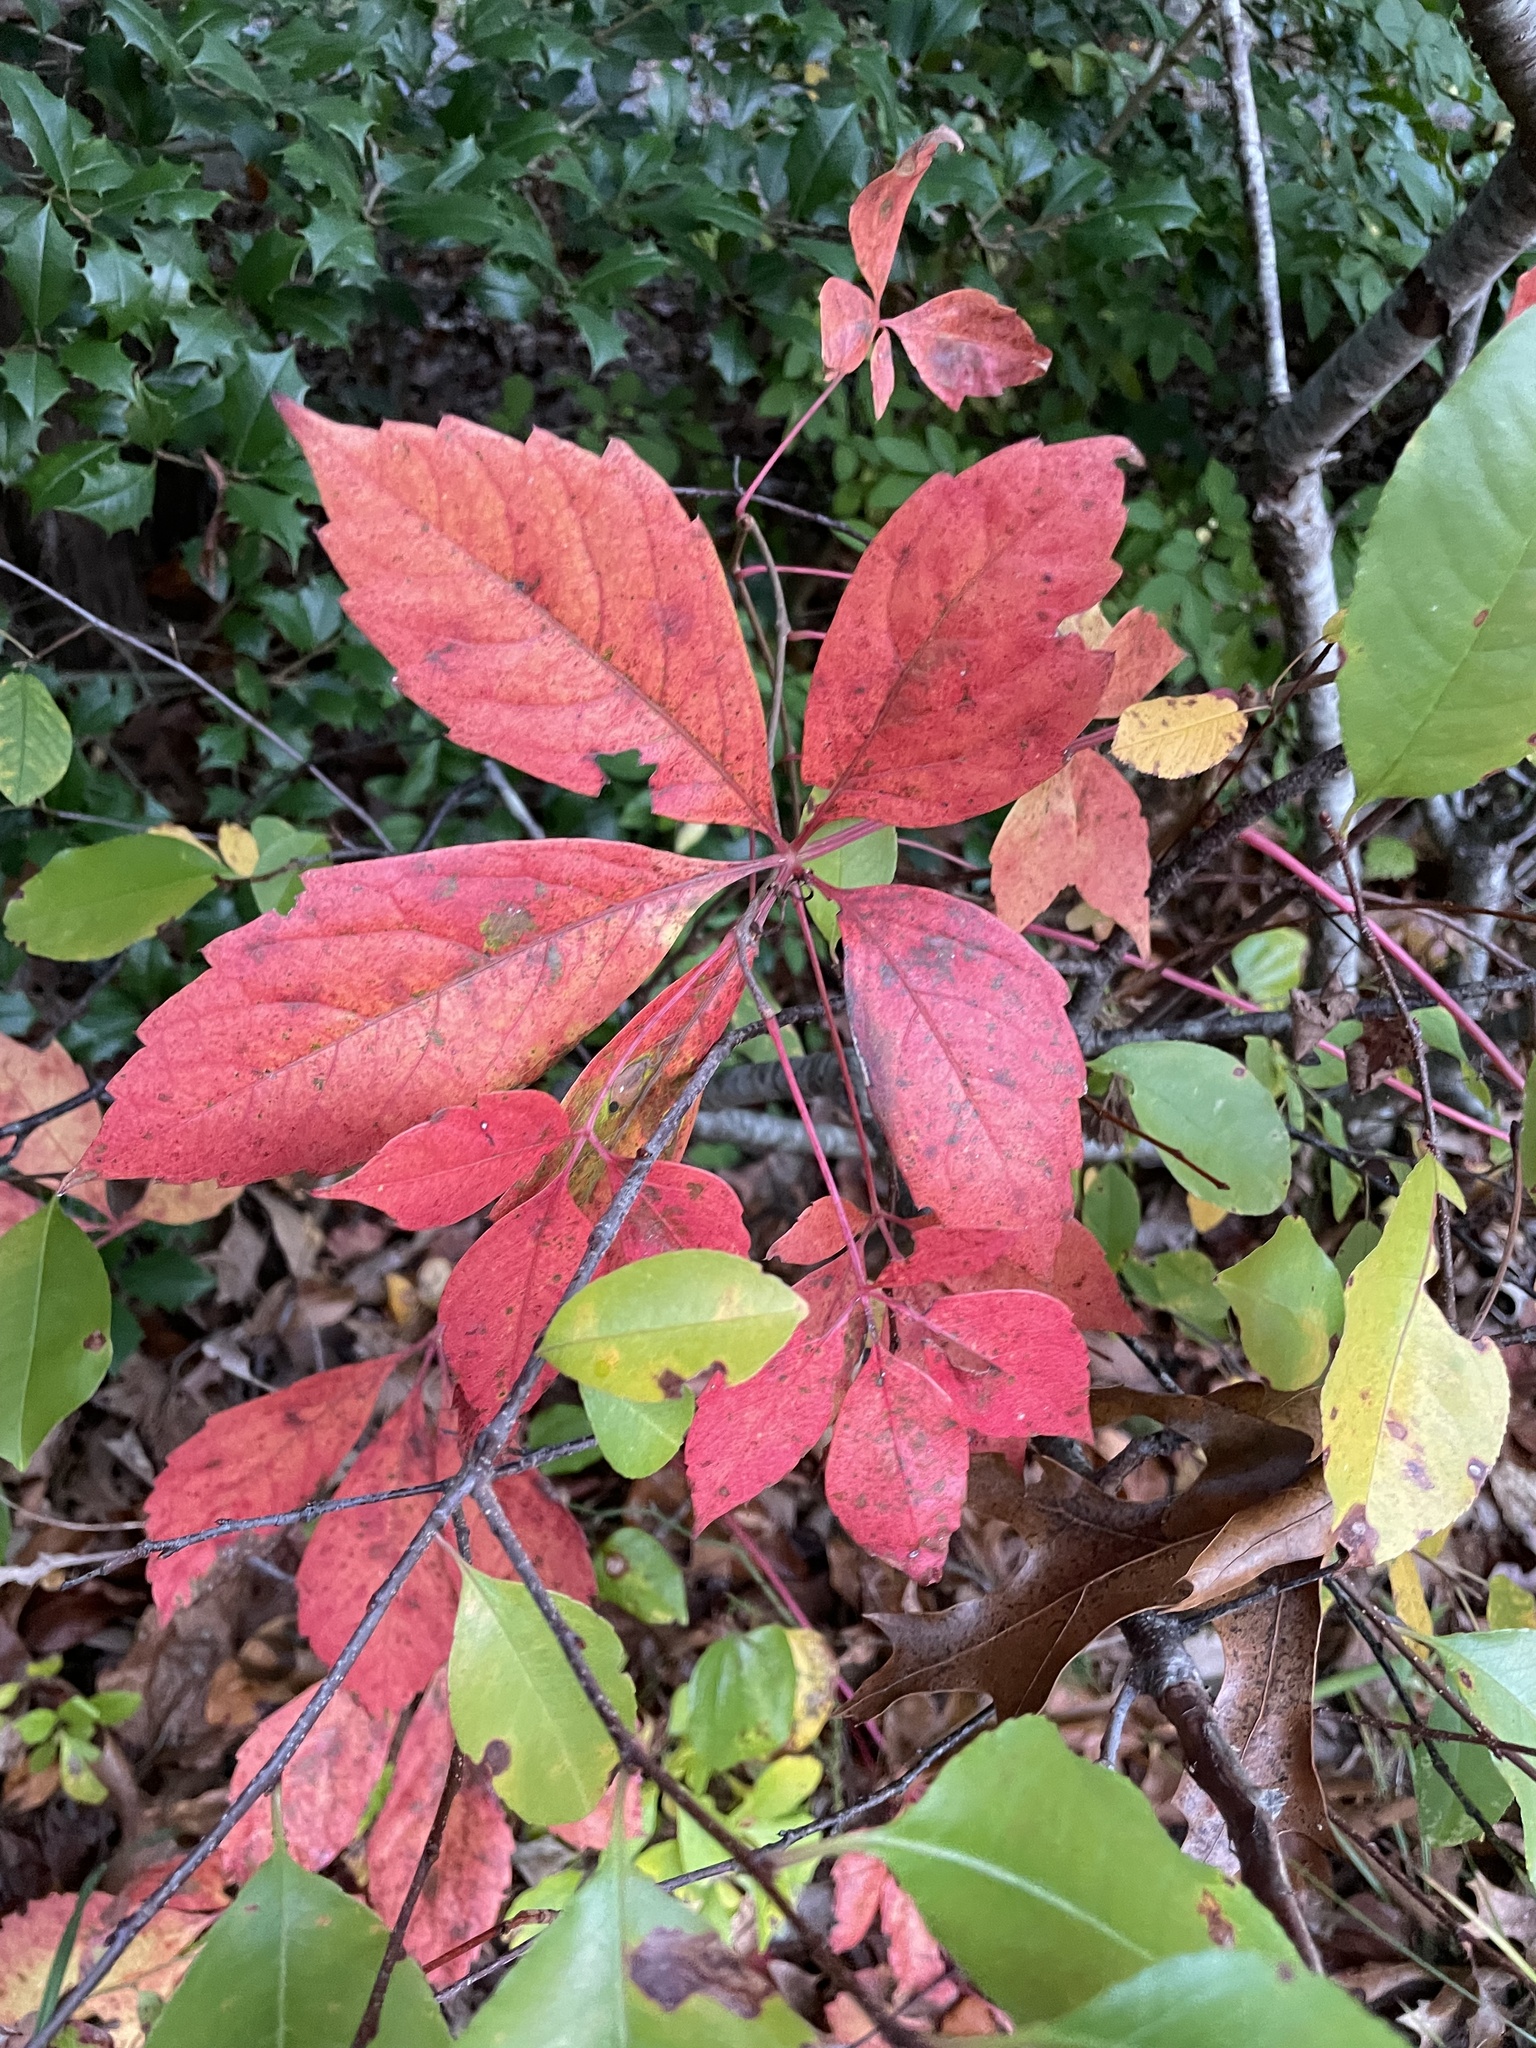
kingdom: Plantae
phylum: Tracheophyta
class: Magnoliopsida
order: Vitales
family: Vitaceae
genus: Parthenocissus
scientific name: Parthenocissus quinquefolia
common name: Virginia-creeper
